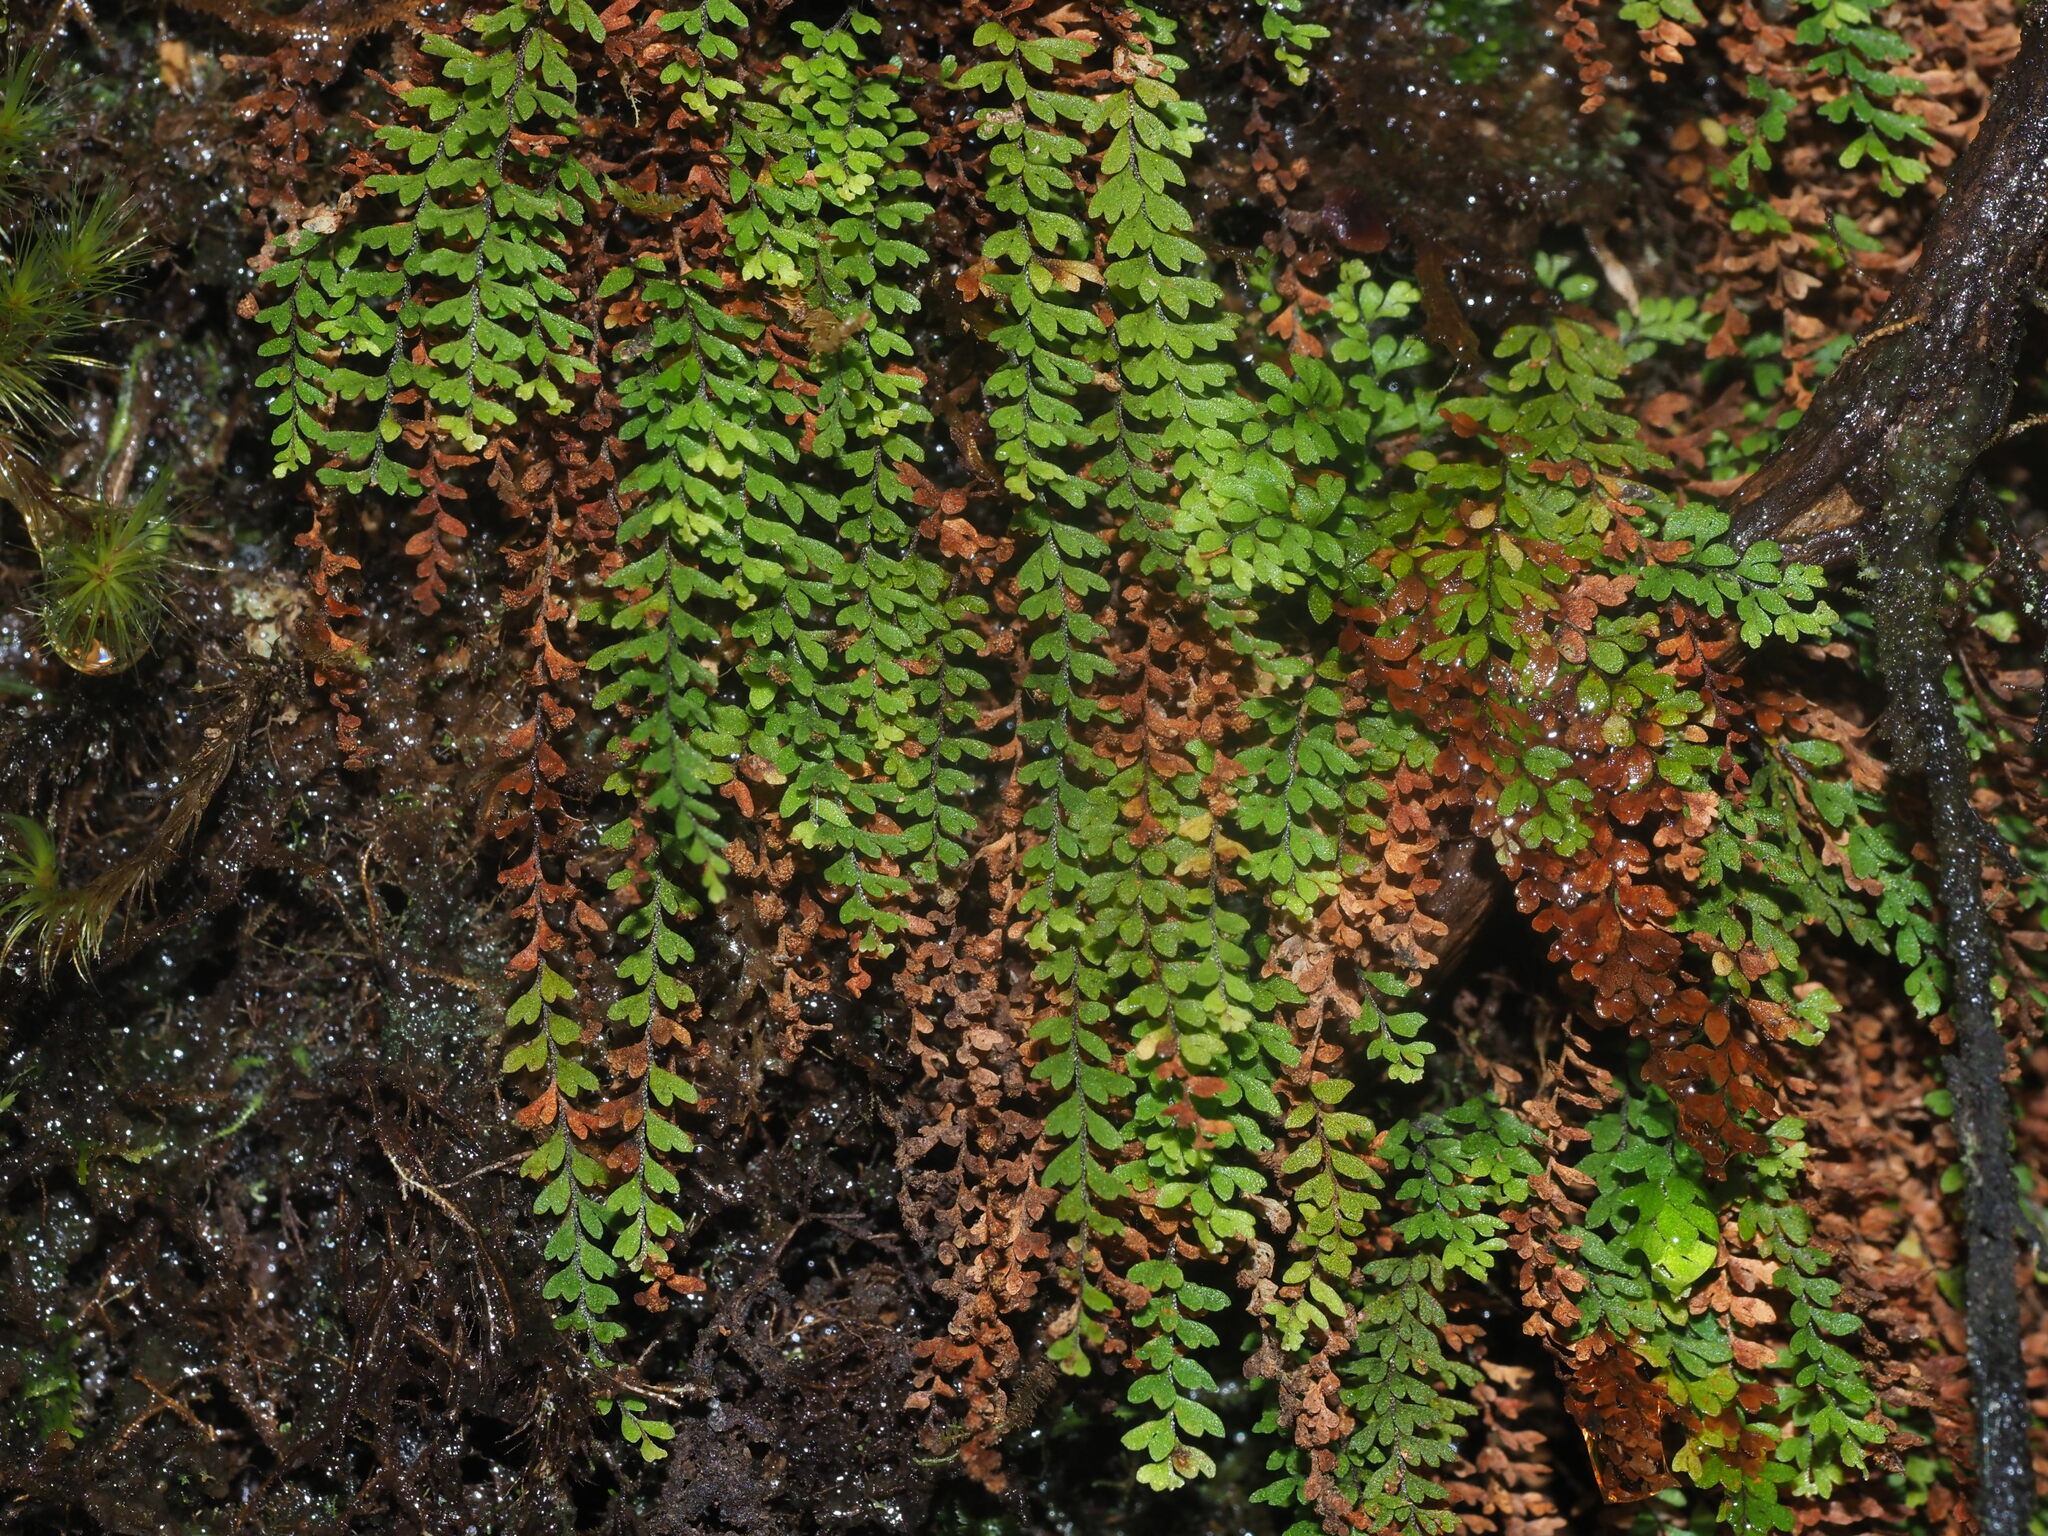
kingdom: Plantae
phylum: Tracheophyta
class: Polypodiopsida
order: Polypodiales
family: Polypodiaceae
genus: Adenophorus
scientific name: Adenophorus hymenophylloides
